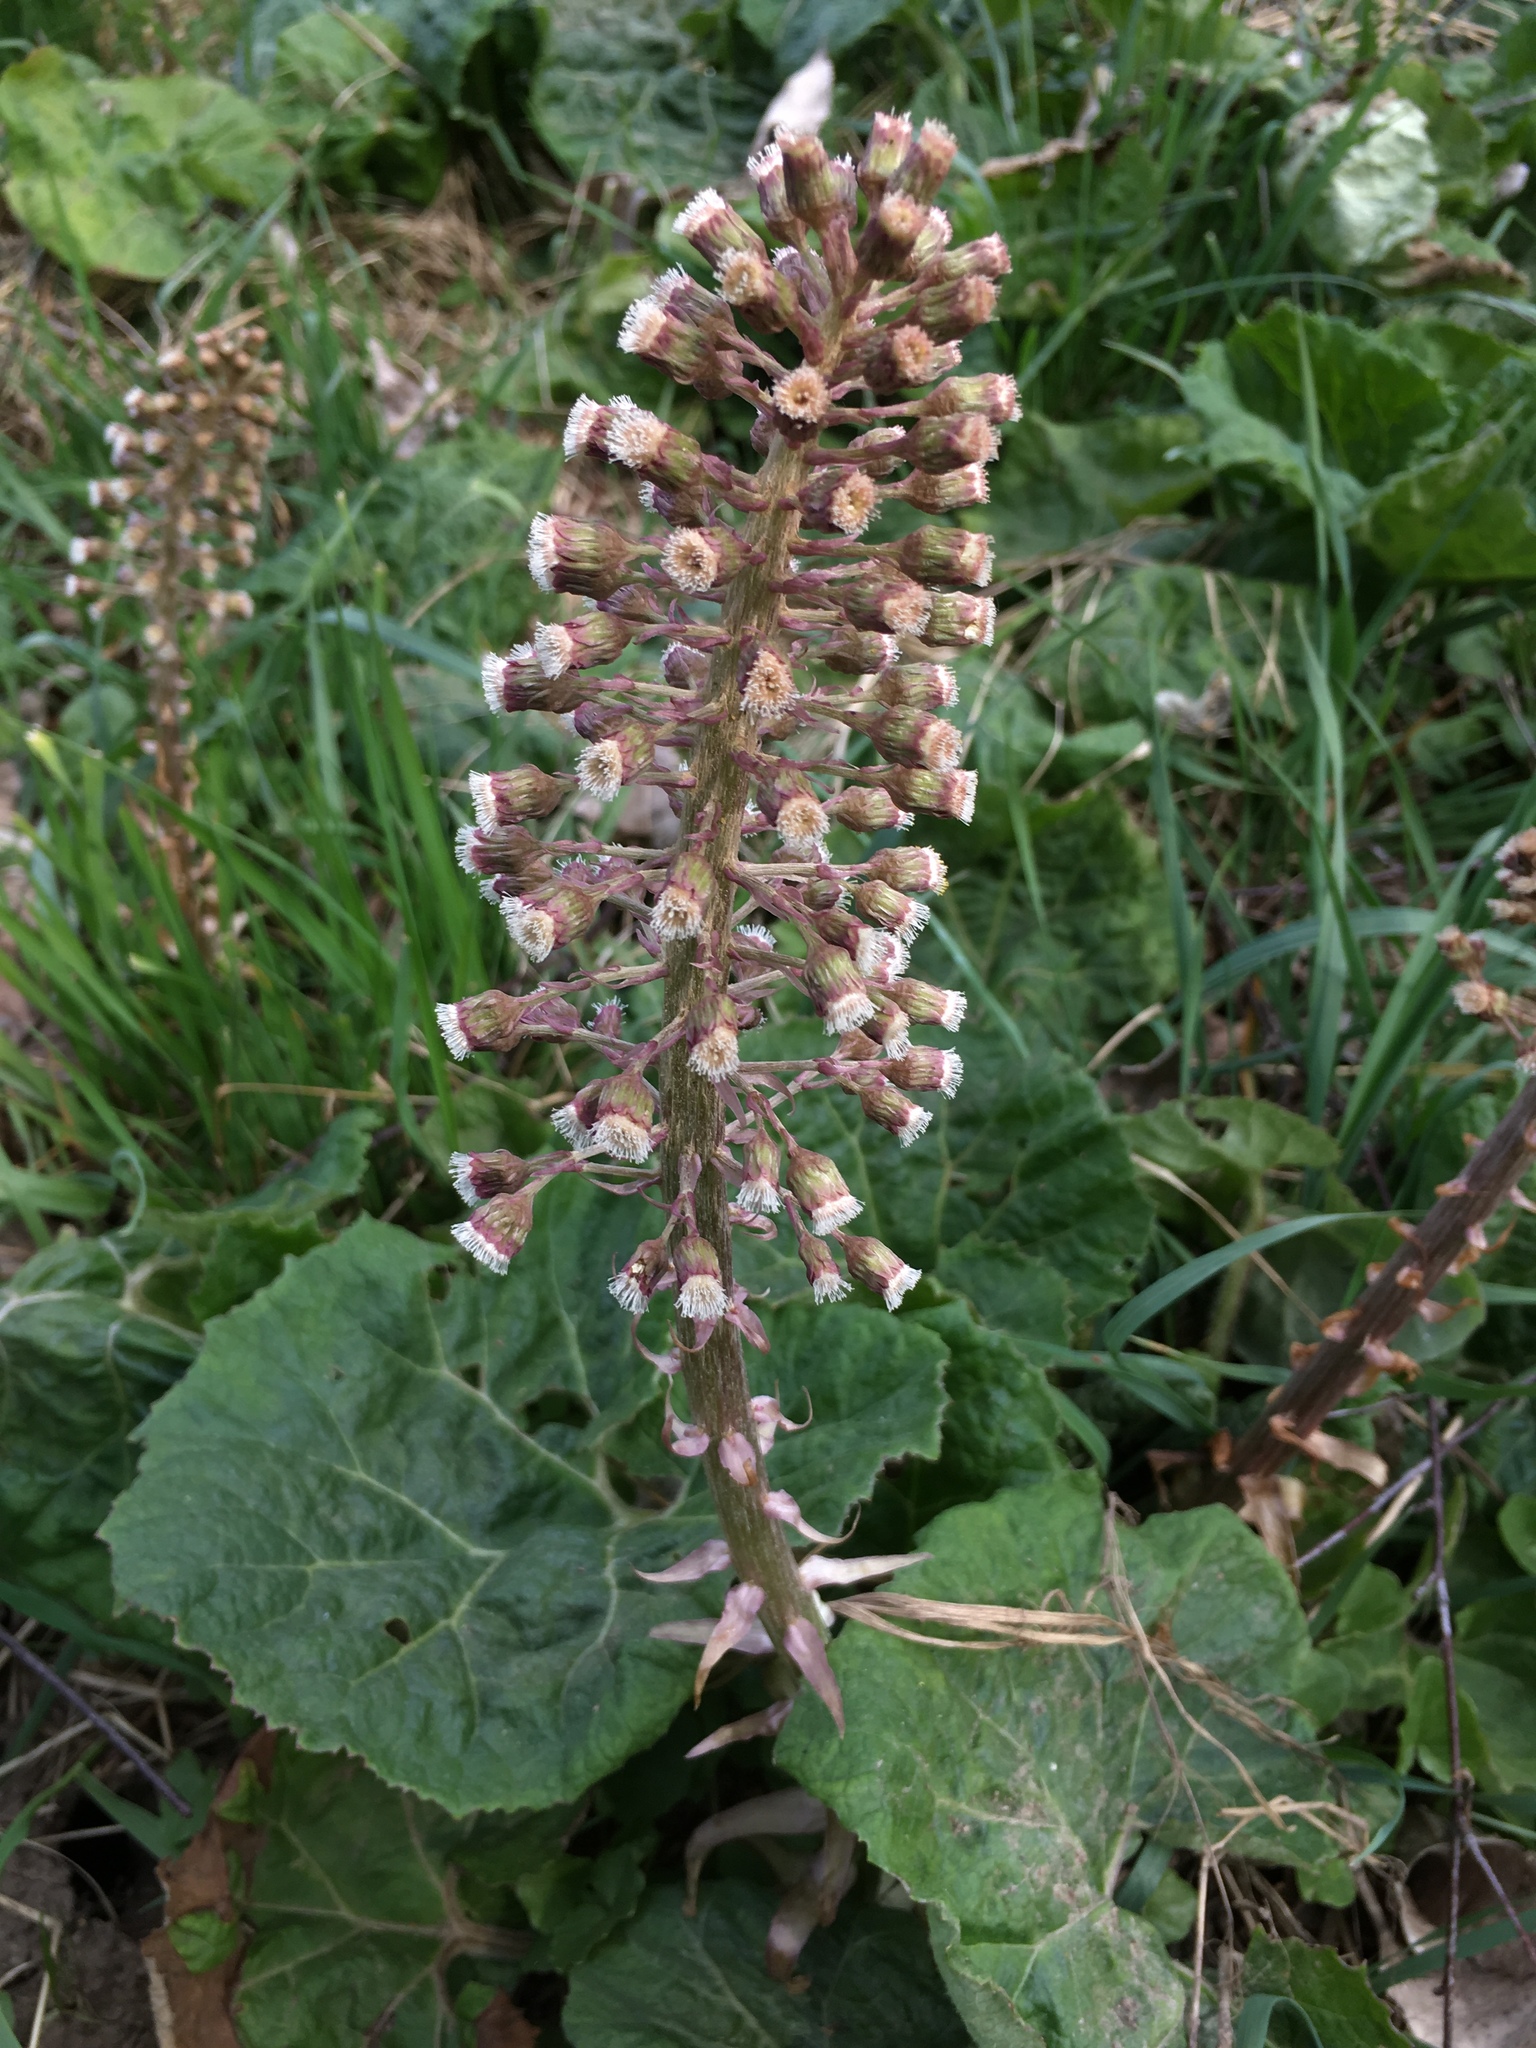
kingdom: Plantae
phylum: Tracheophyta
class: Magnoliopsida
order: Asterales
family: Asteraceae
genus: Petasites
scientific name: Petasites hybridus
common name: Butterbur
